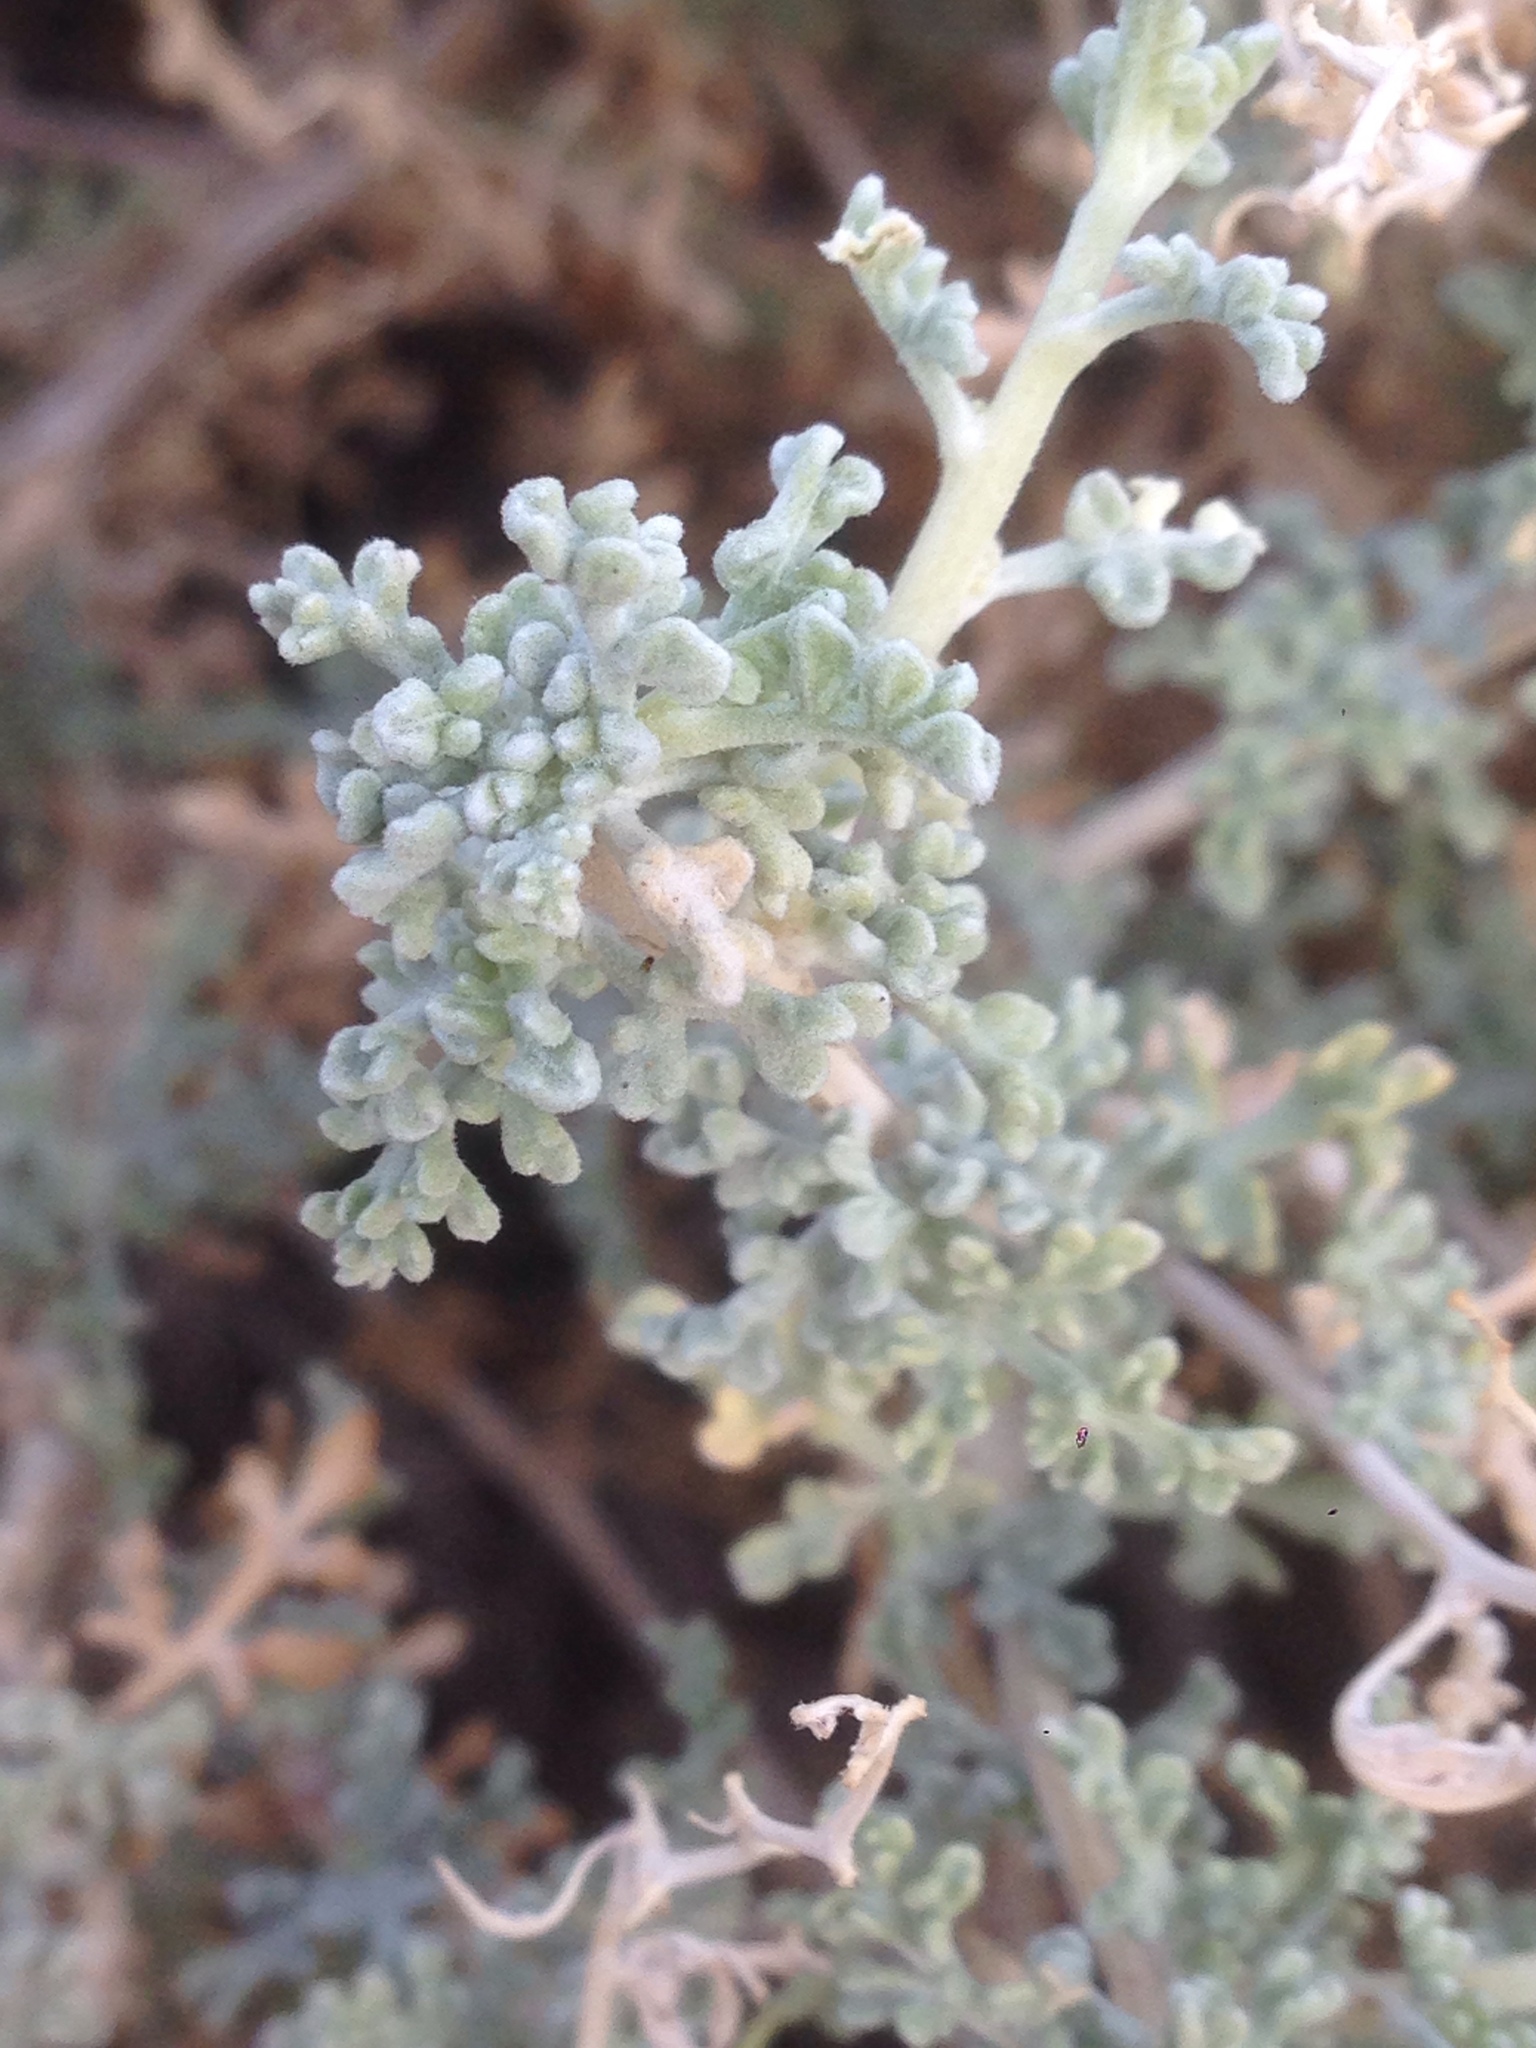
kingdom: Plantae
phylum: Tracheophyta
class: Magnoliopsida
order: Asterales
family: Asteraceae
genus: Ambrosia
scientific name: Ambrosia dumosa
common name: Bur-sage
